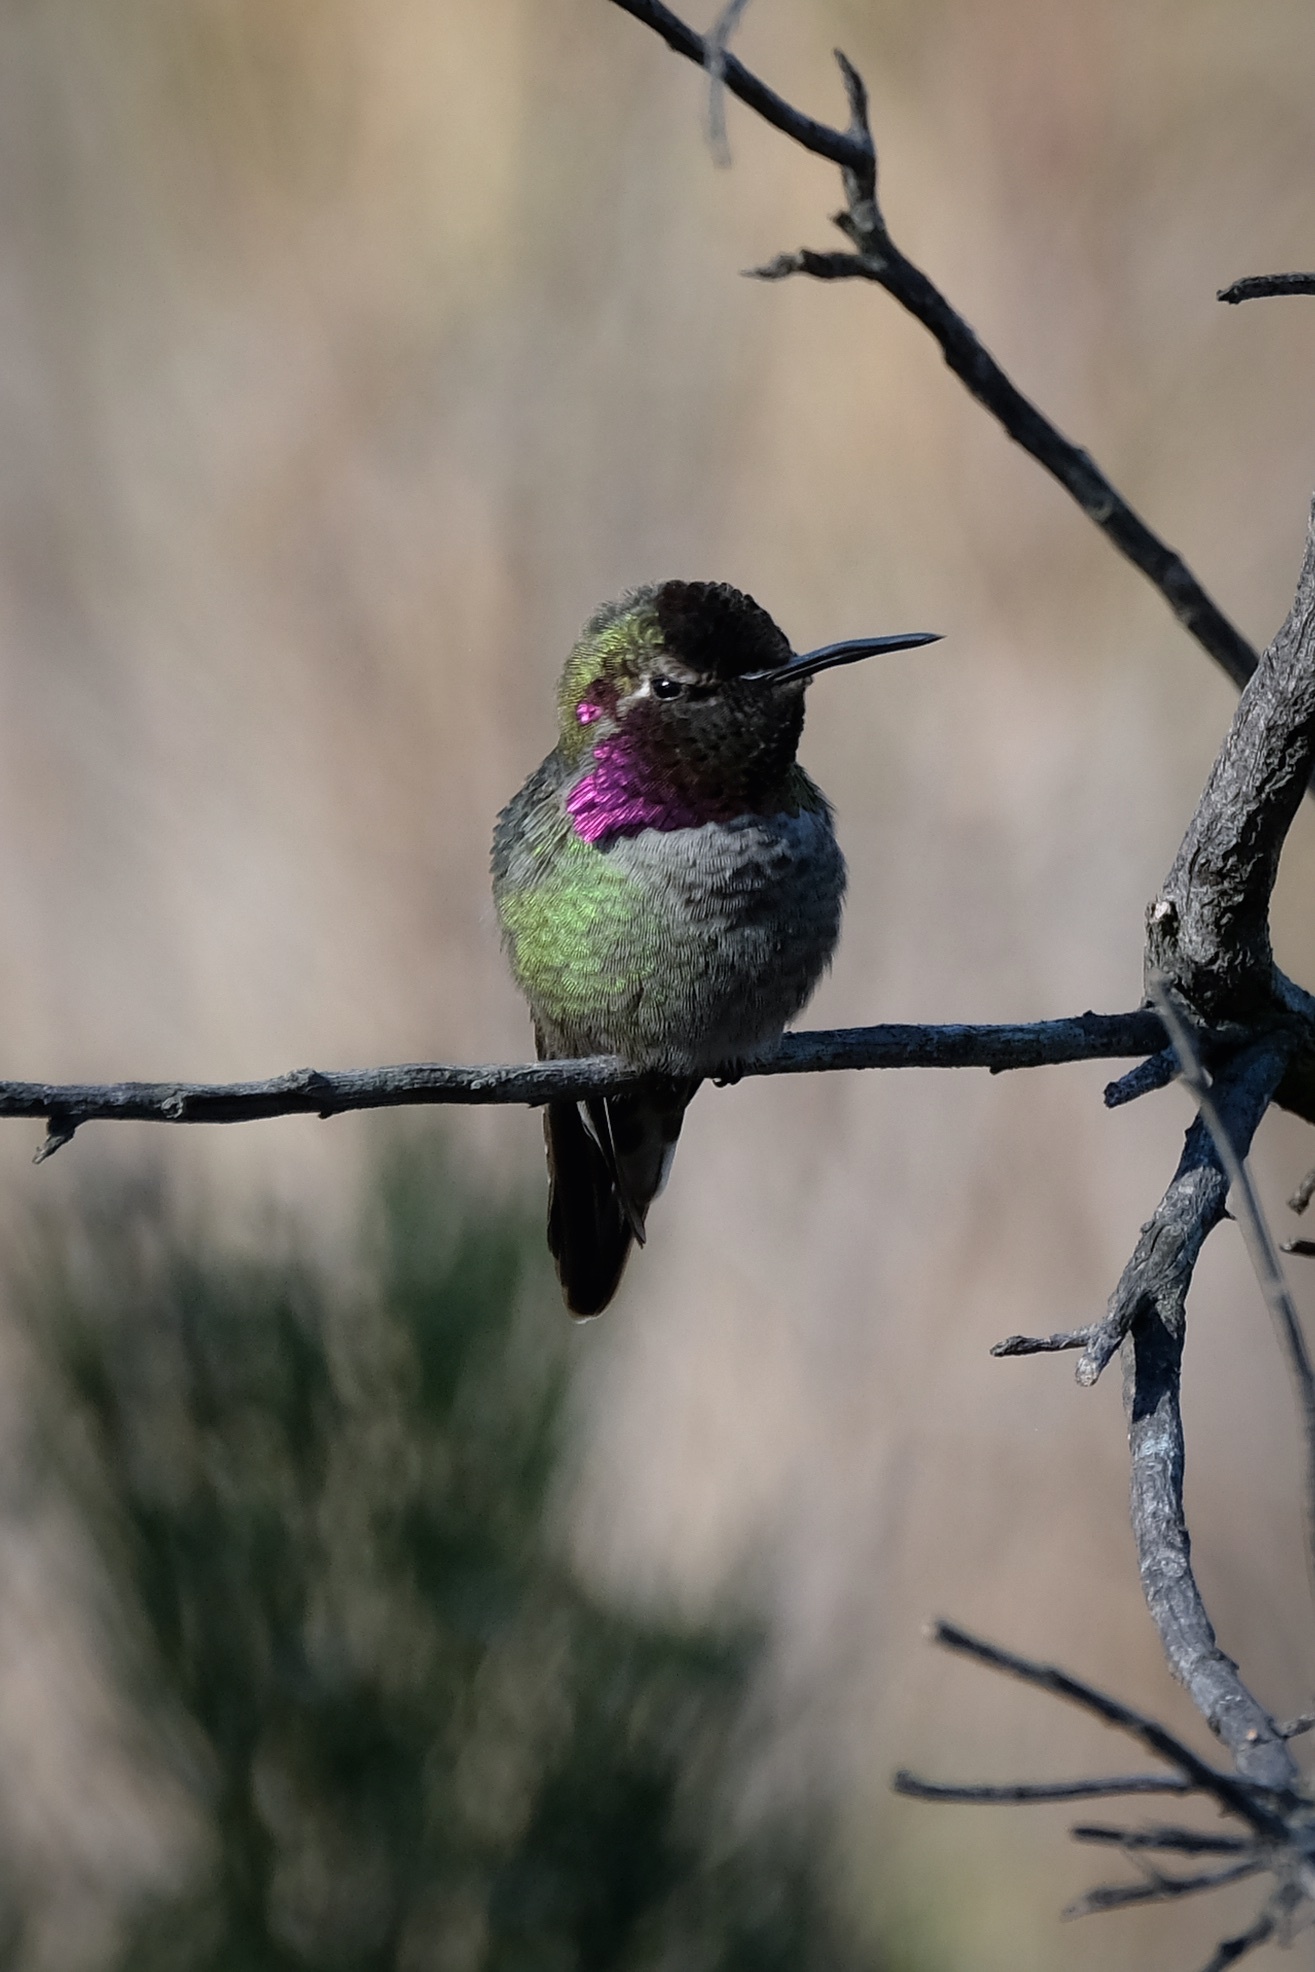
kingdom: Animalia
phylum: Chordata
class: Aves
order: Apodiformes
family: Trochilidae
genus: Calypte
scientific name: Calypte anna
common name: Anna's hummingbird
